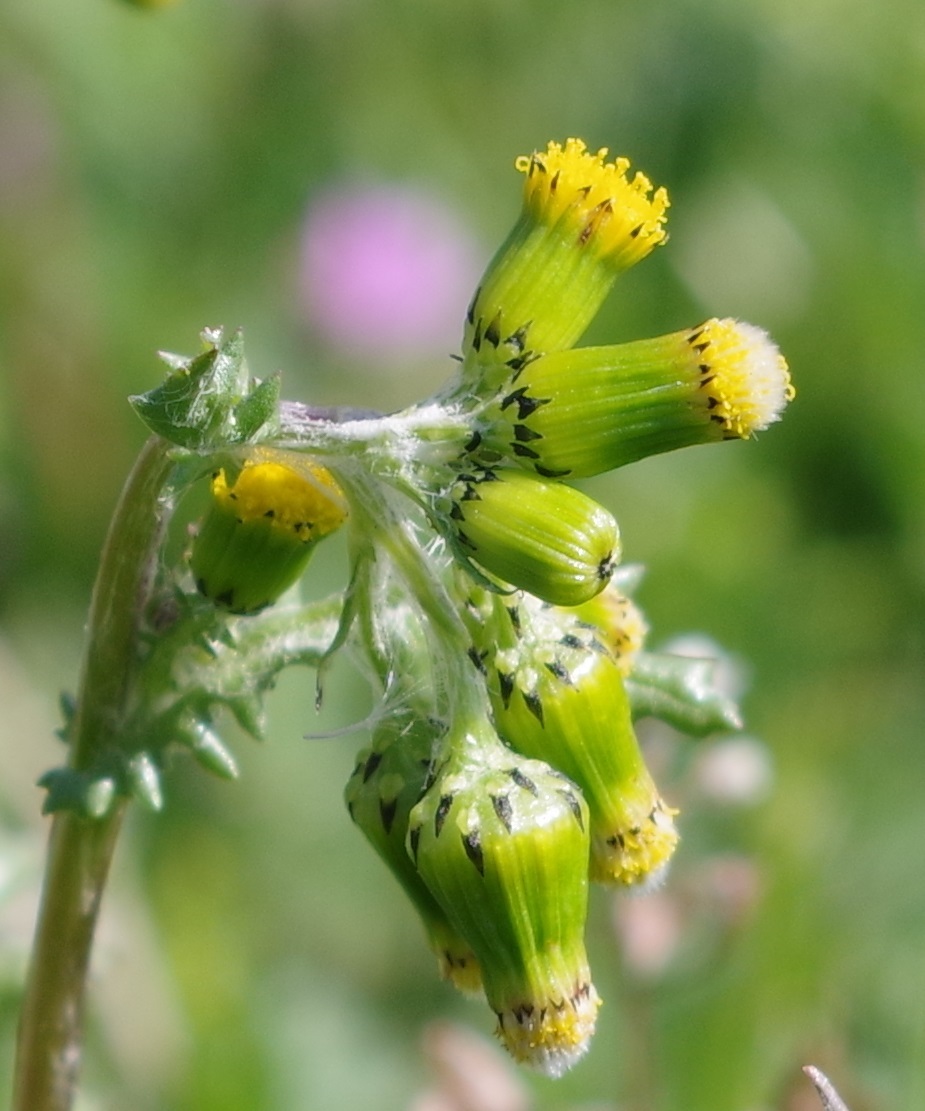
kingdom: Plantae
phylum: Tracheophyta
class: Magnoliopsida
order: Asterales
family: Asteraceae
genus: Senecio
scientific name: Senecio vulgaris
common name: Old-man-in-the-spring
